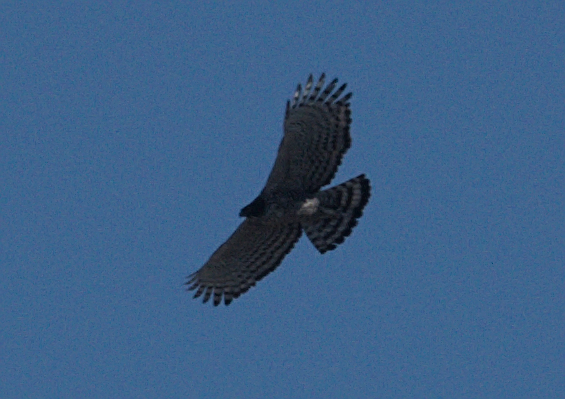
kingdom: Animalia
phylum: Chordata
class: Aves
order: Accipitriformes
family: Accipitridae
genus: Nisaetus
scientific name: Nisaetus nipalensis
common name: Mountain hawk-eagle
